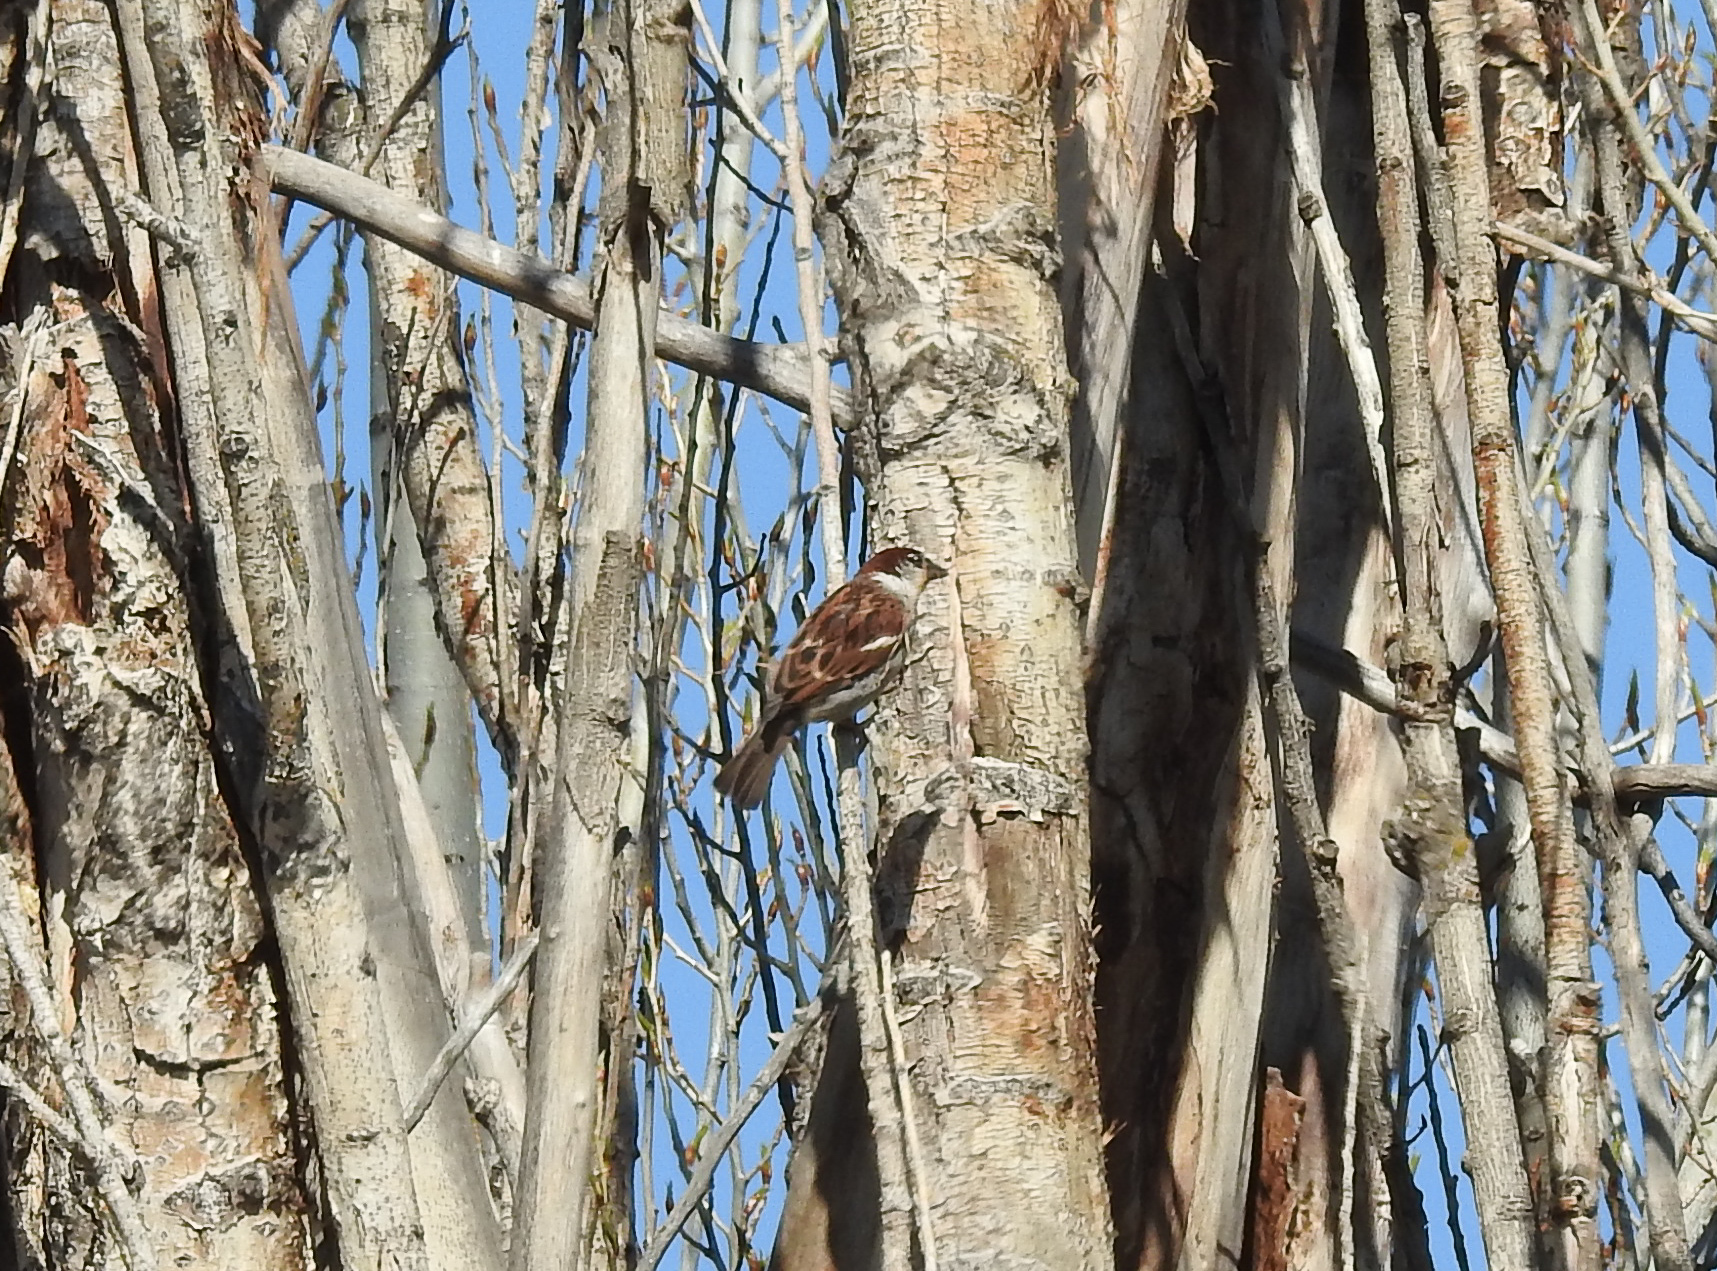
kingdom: Animalia
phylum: Chordata
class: Aves
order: Passeriformes
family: Passeridae
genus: Passer
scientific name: Passer domesticus
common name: House sparrow
